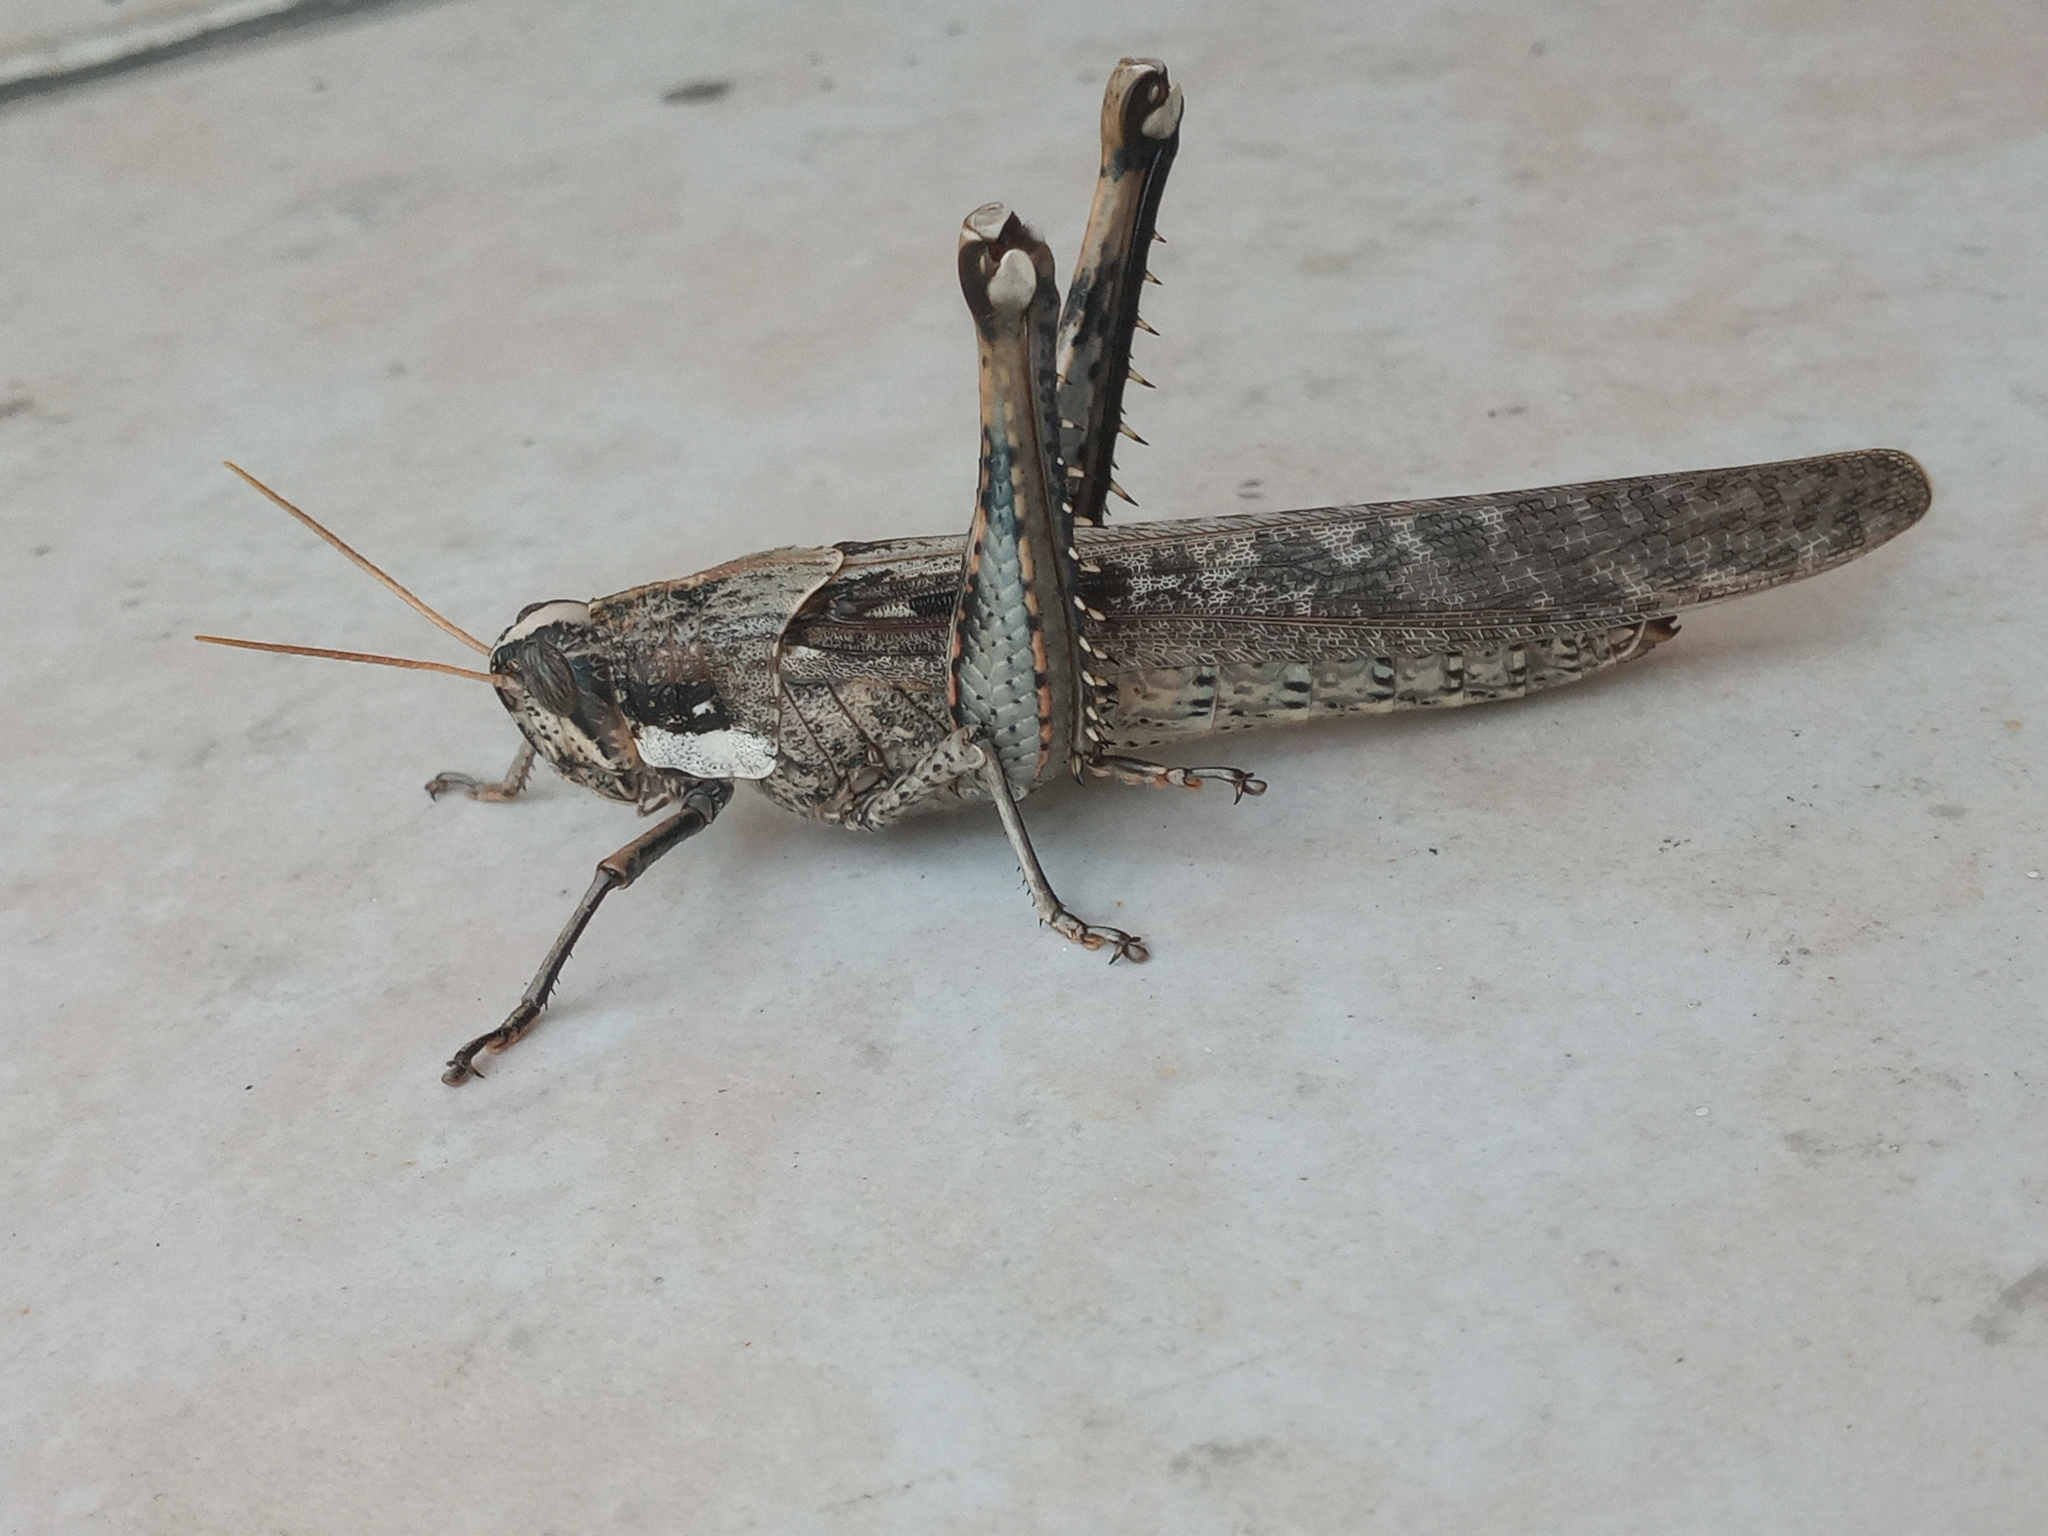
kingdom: Animalia
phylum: Arthropoda
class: Insecta
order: Orthoptera
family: Acrididae
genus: Schistocerca
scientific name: Schistocerca nitens
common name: Vagrant grasshopper
